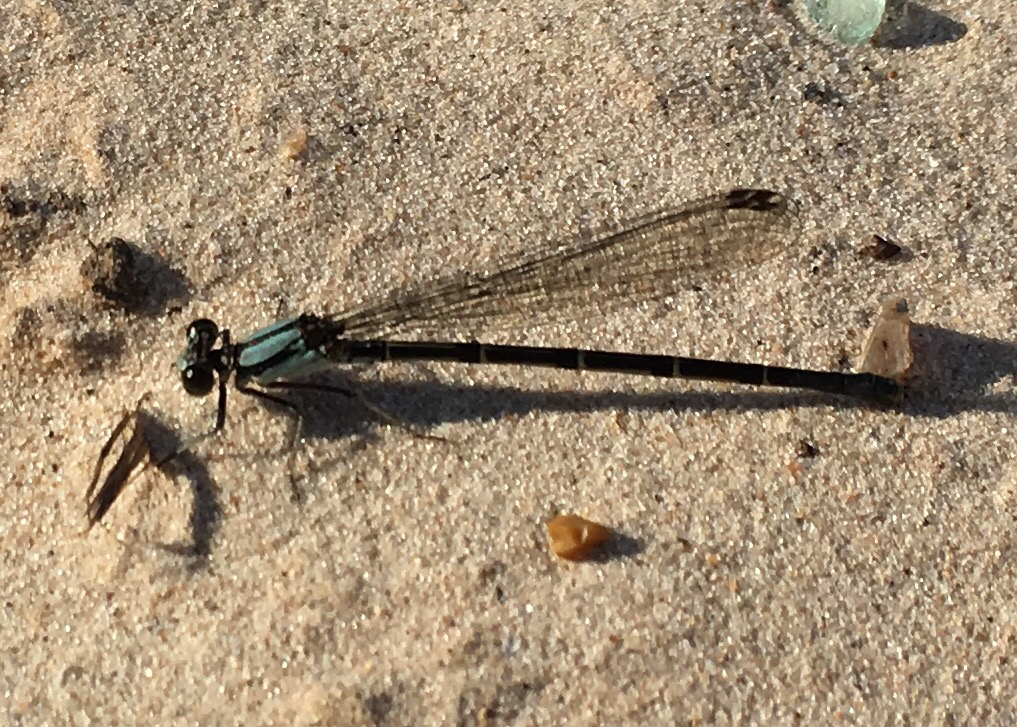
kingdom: Animalia
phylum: Arthropoda
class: Insecta
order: Odonata
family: Coenagrionidae
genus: Argia
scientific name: Argia tibialis
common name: Blue-tipped dancer
